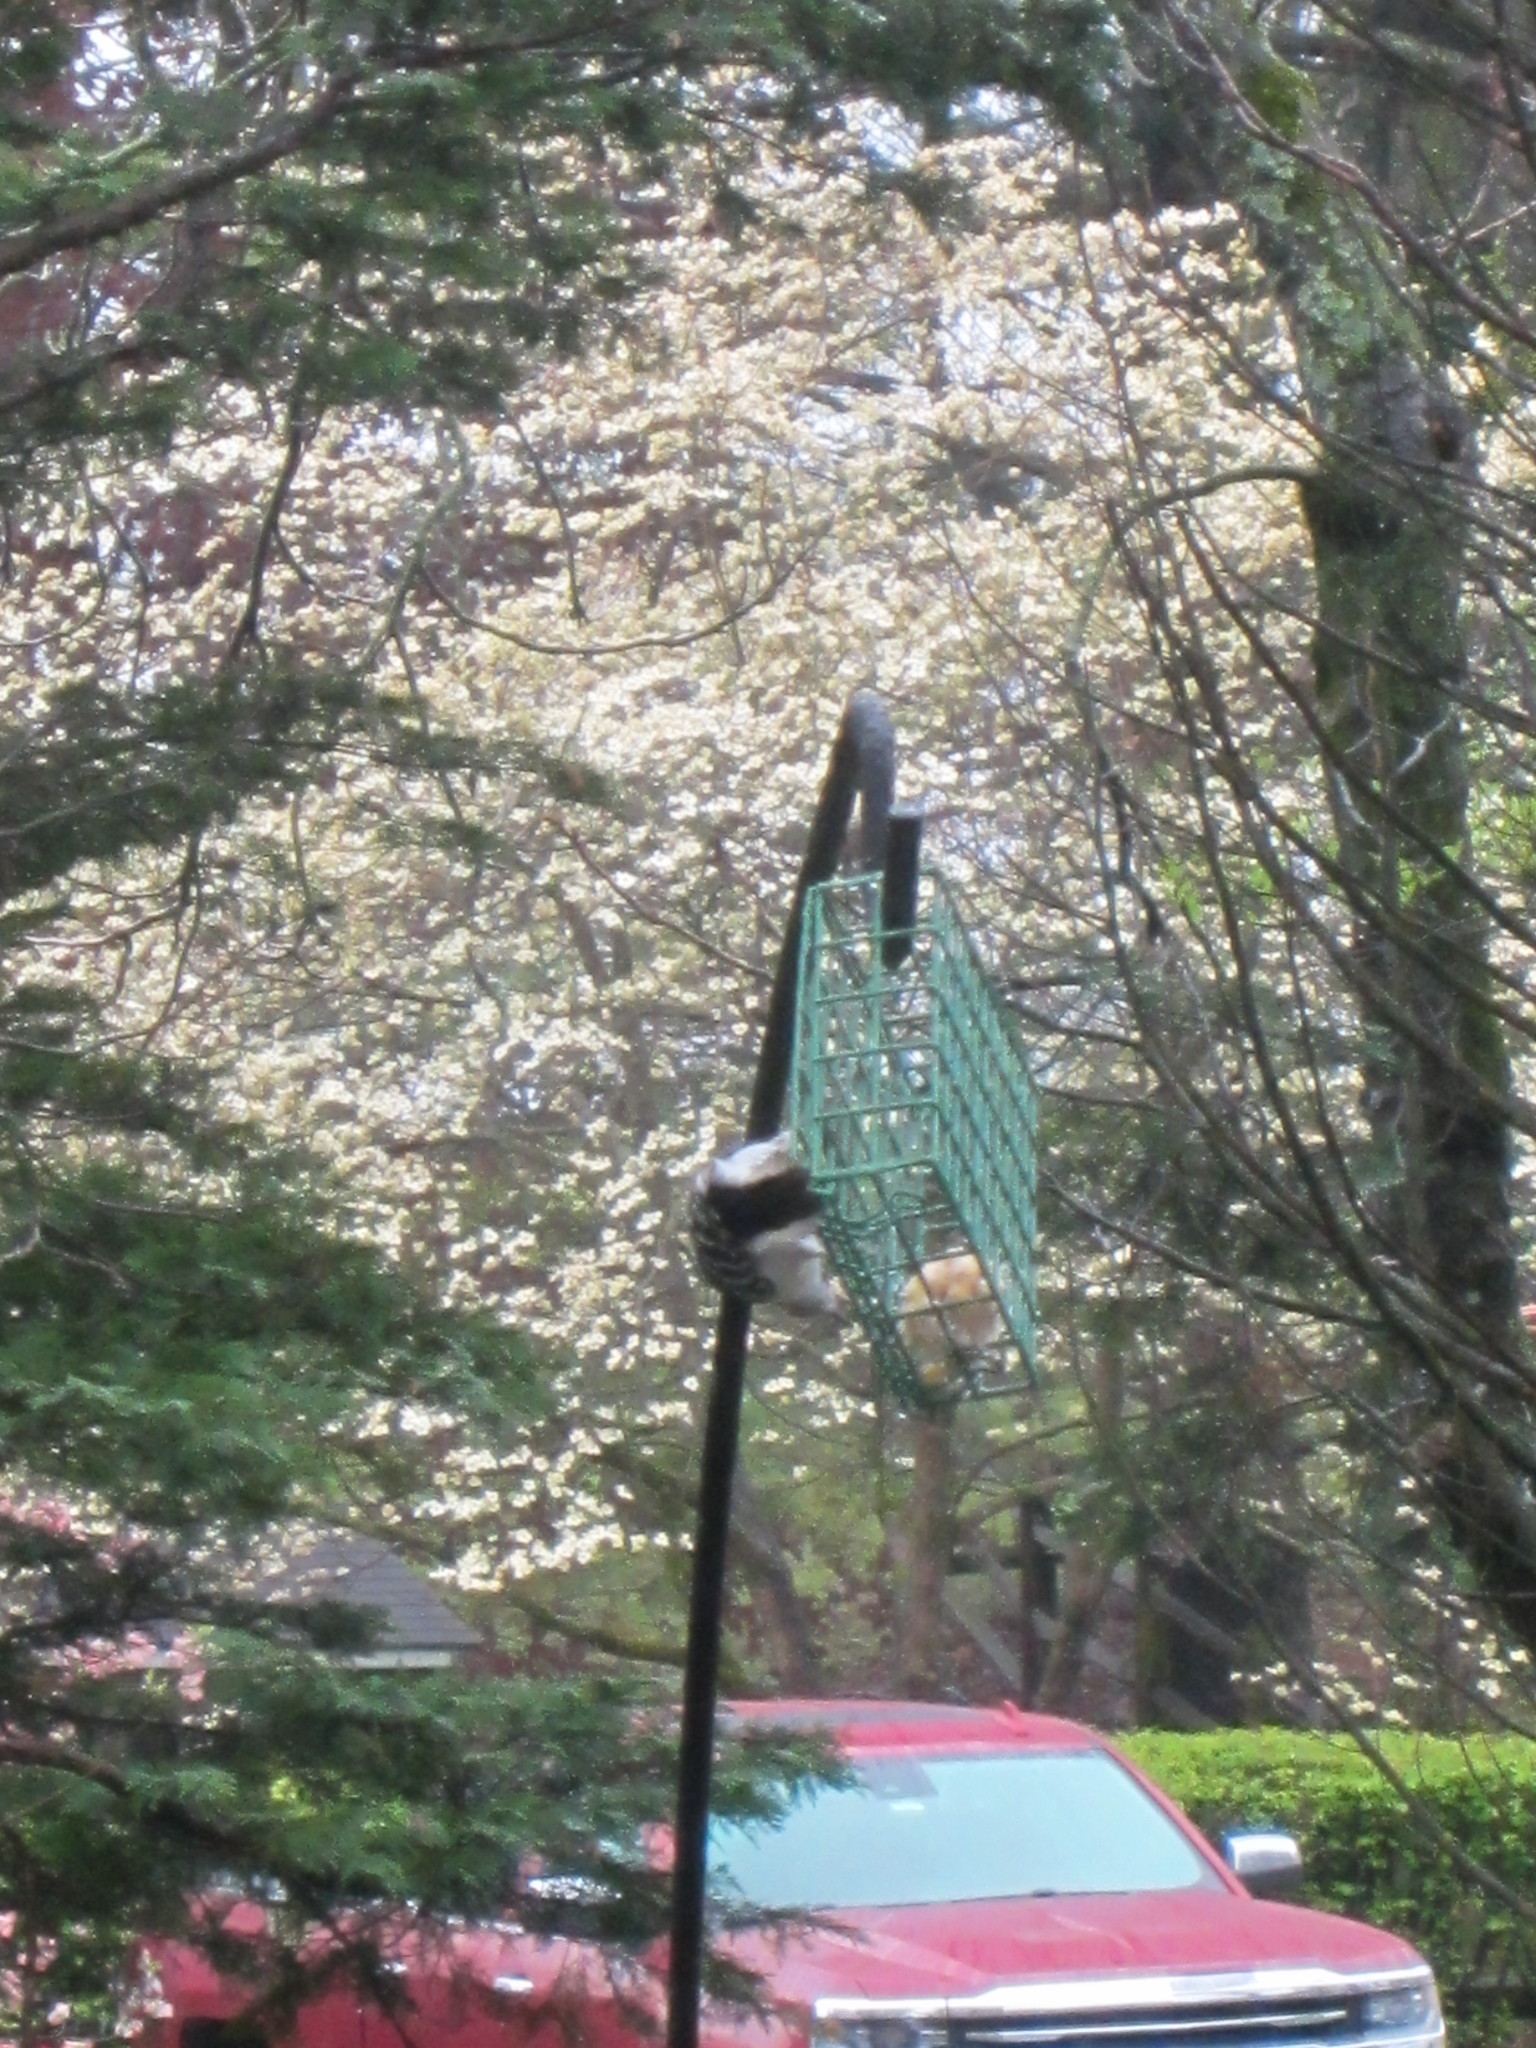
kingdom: Animalia
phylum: Chordata
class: Aves
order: Piciformes
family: Picidae
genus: Dryobates
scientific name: Dryobates pubescens
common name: Downy woodpecker
